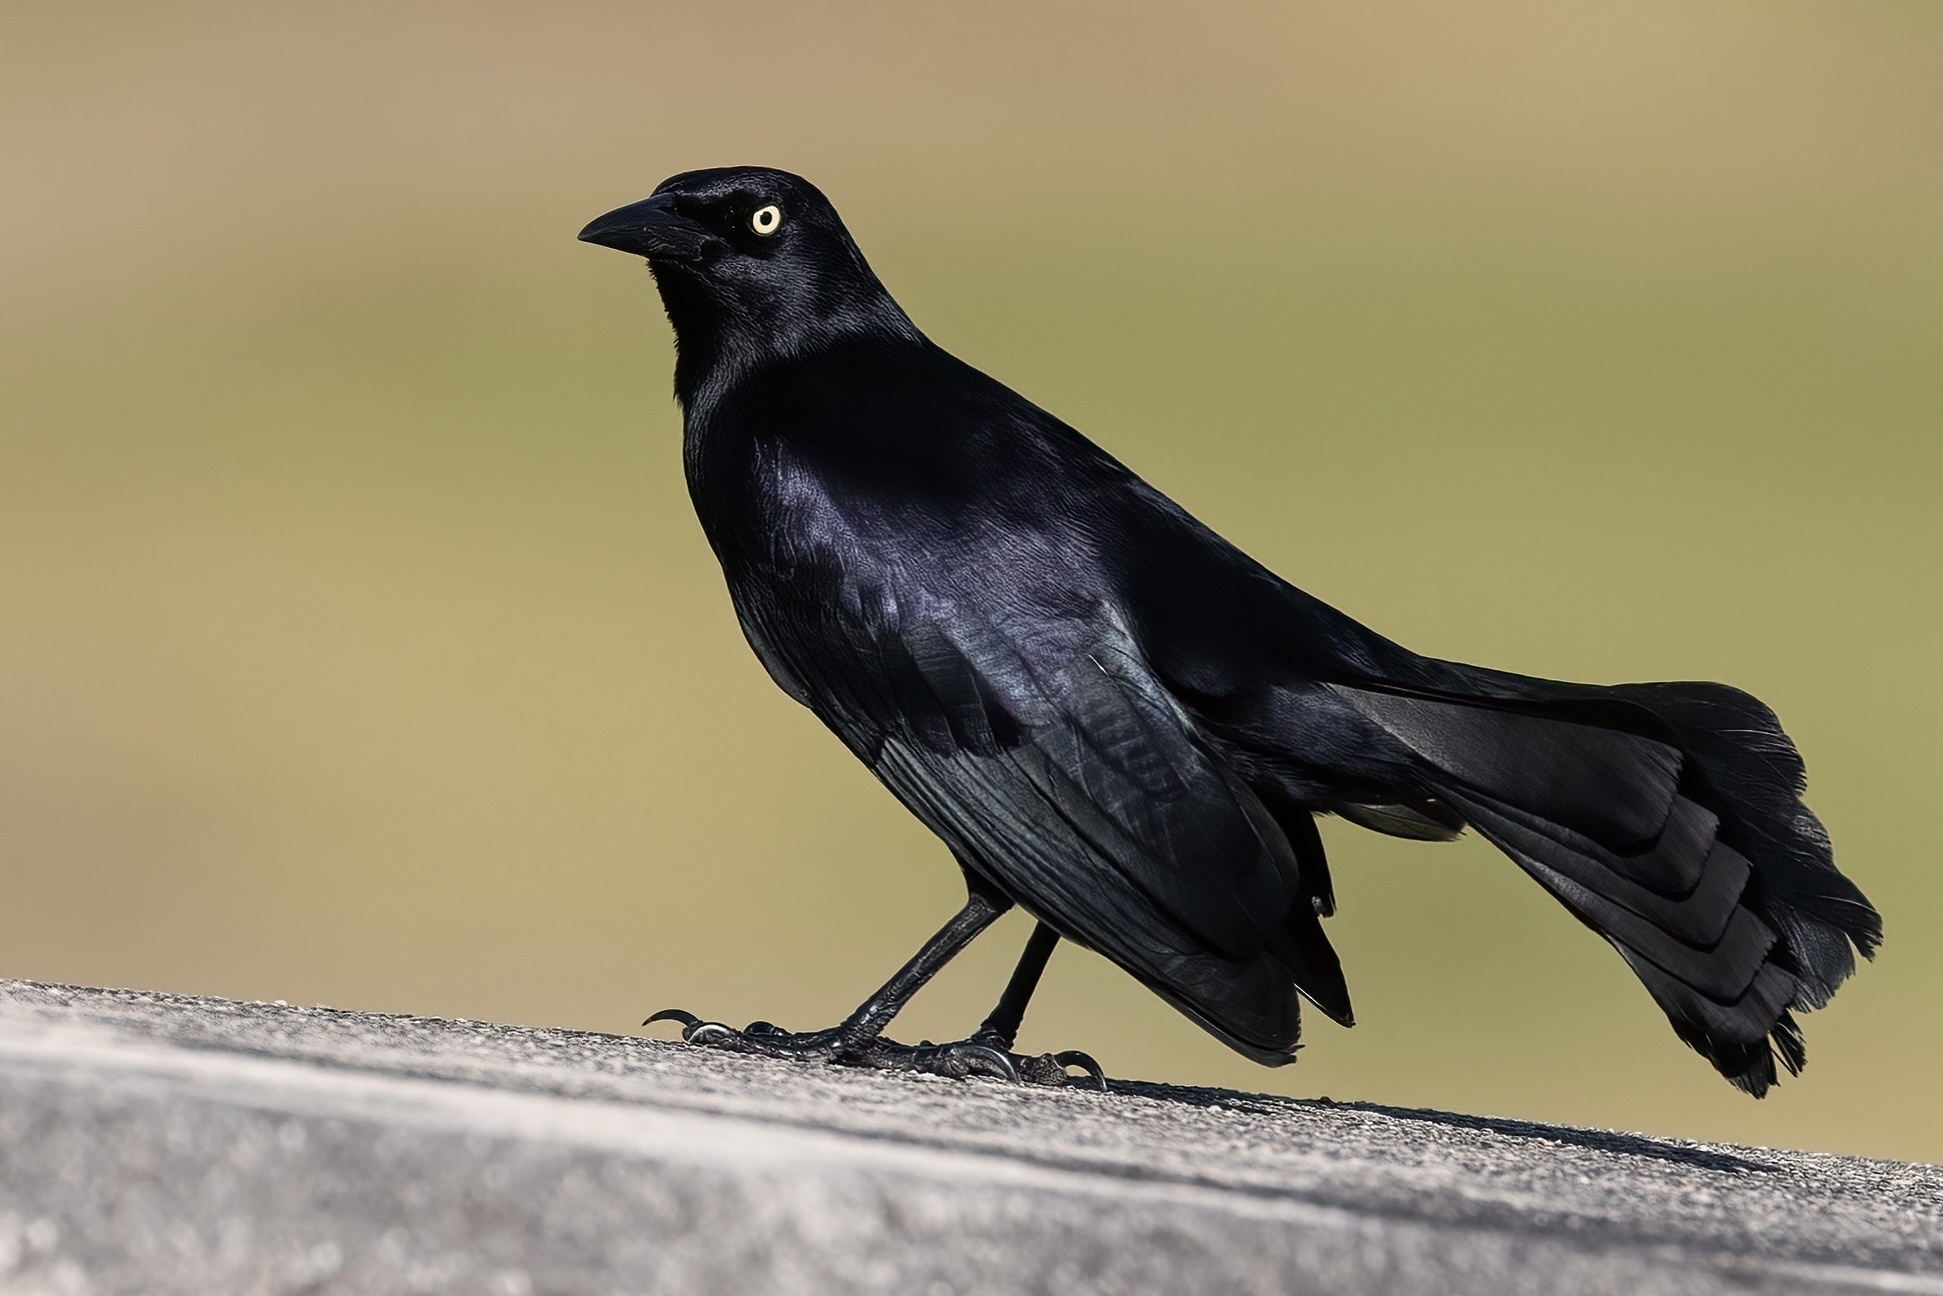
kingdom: Animalia
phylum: Chordata
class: Aves
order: Passeriformes
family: Icteridae
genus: Quiscalus
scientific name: Quiscalus niger
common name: Greater antillean grackle
